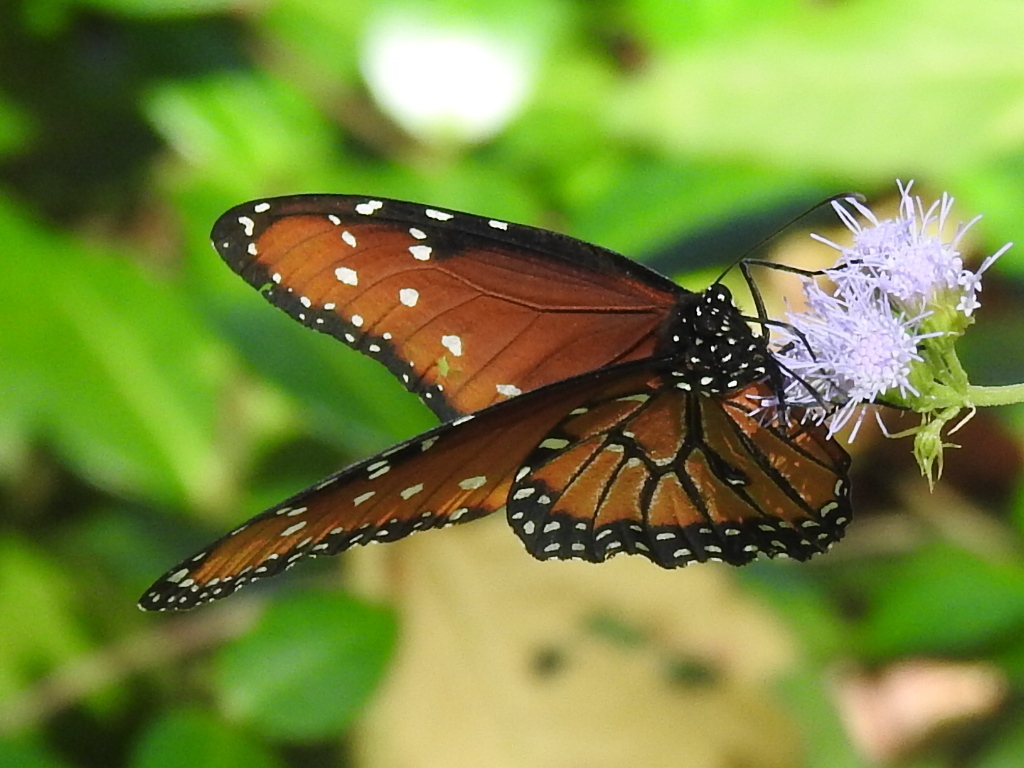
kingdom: Animalia
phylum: Arthropoda
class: Insecta
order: Lepidoptera
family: Nymphalidae
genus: Danaus
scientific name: Danaus gilippus
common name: Queen
